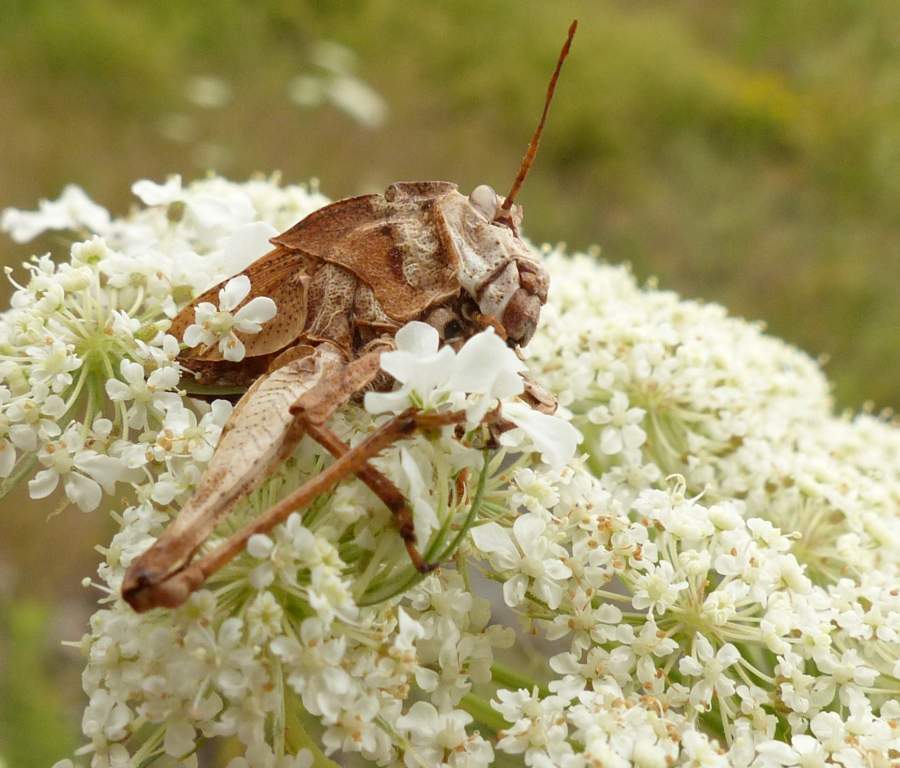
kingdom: Animalia
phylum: Arthropoda
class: Insecta
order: Orthoptera
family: Acrididae
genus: Dissosteira
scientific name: Dissosteira carolina
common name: Carolina grasshopper
